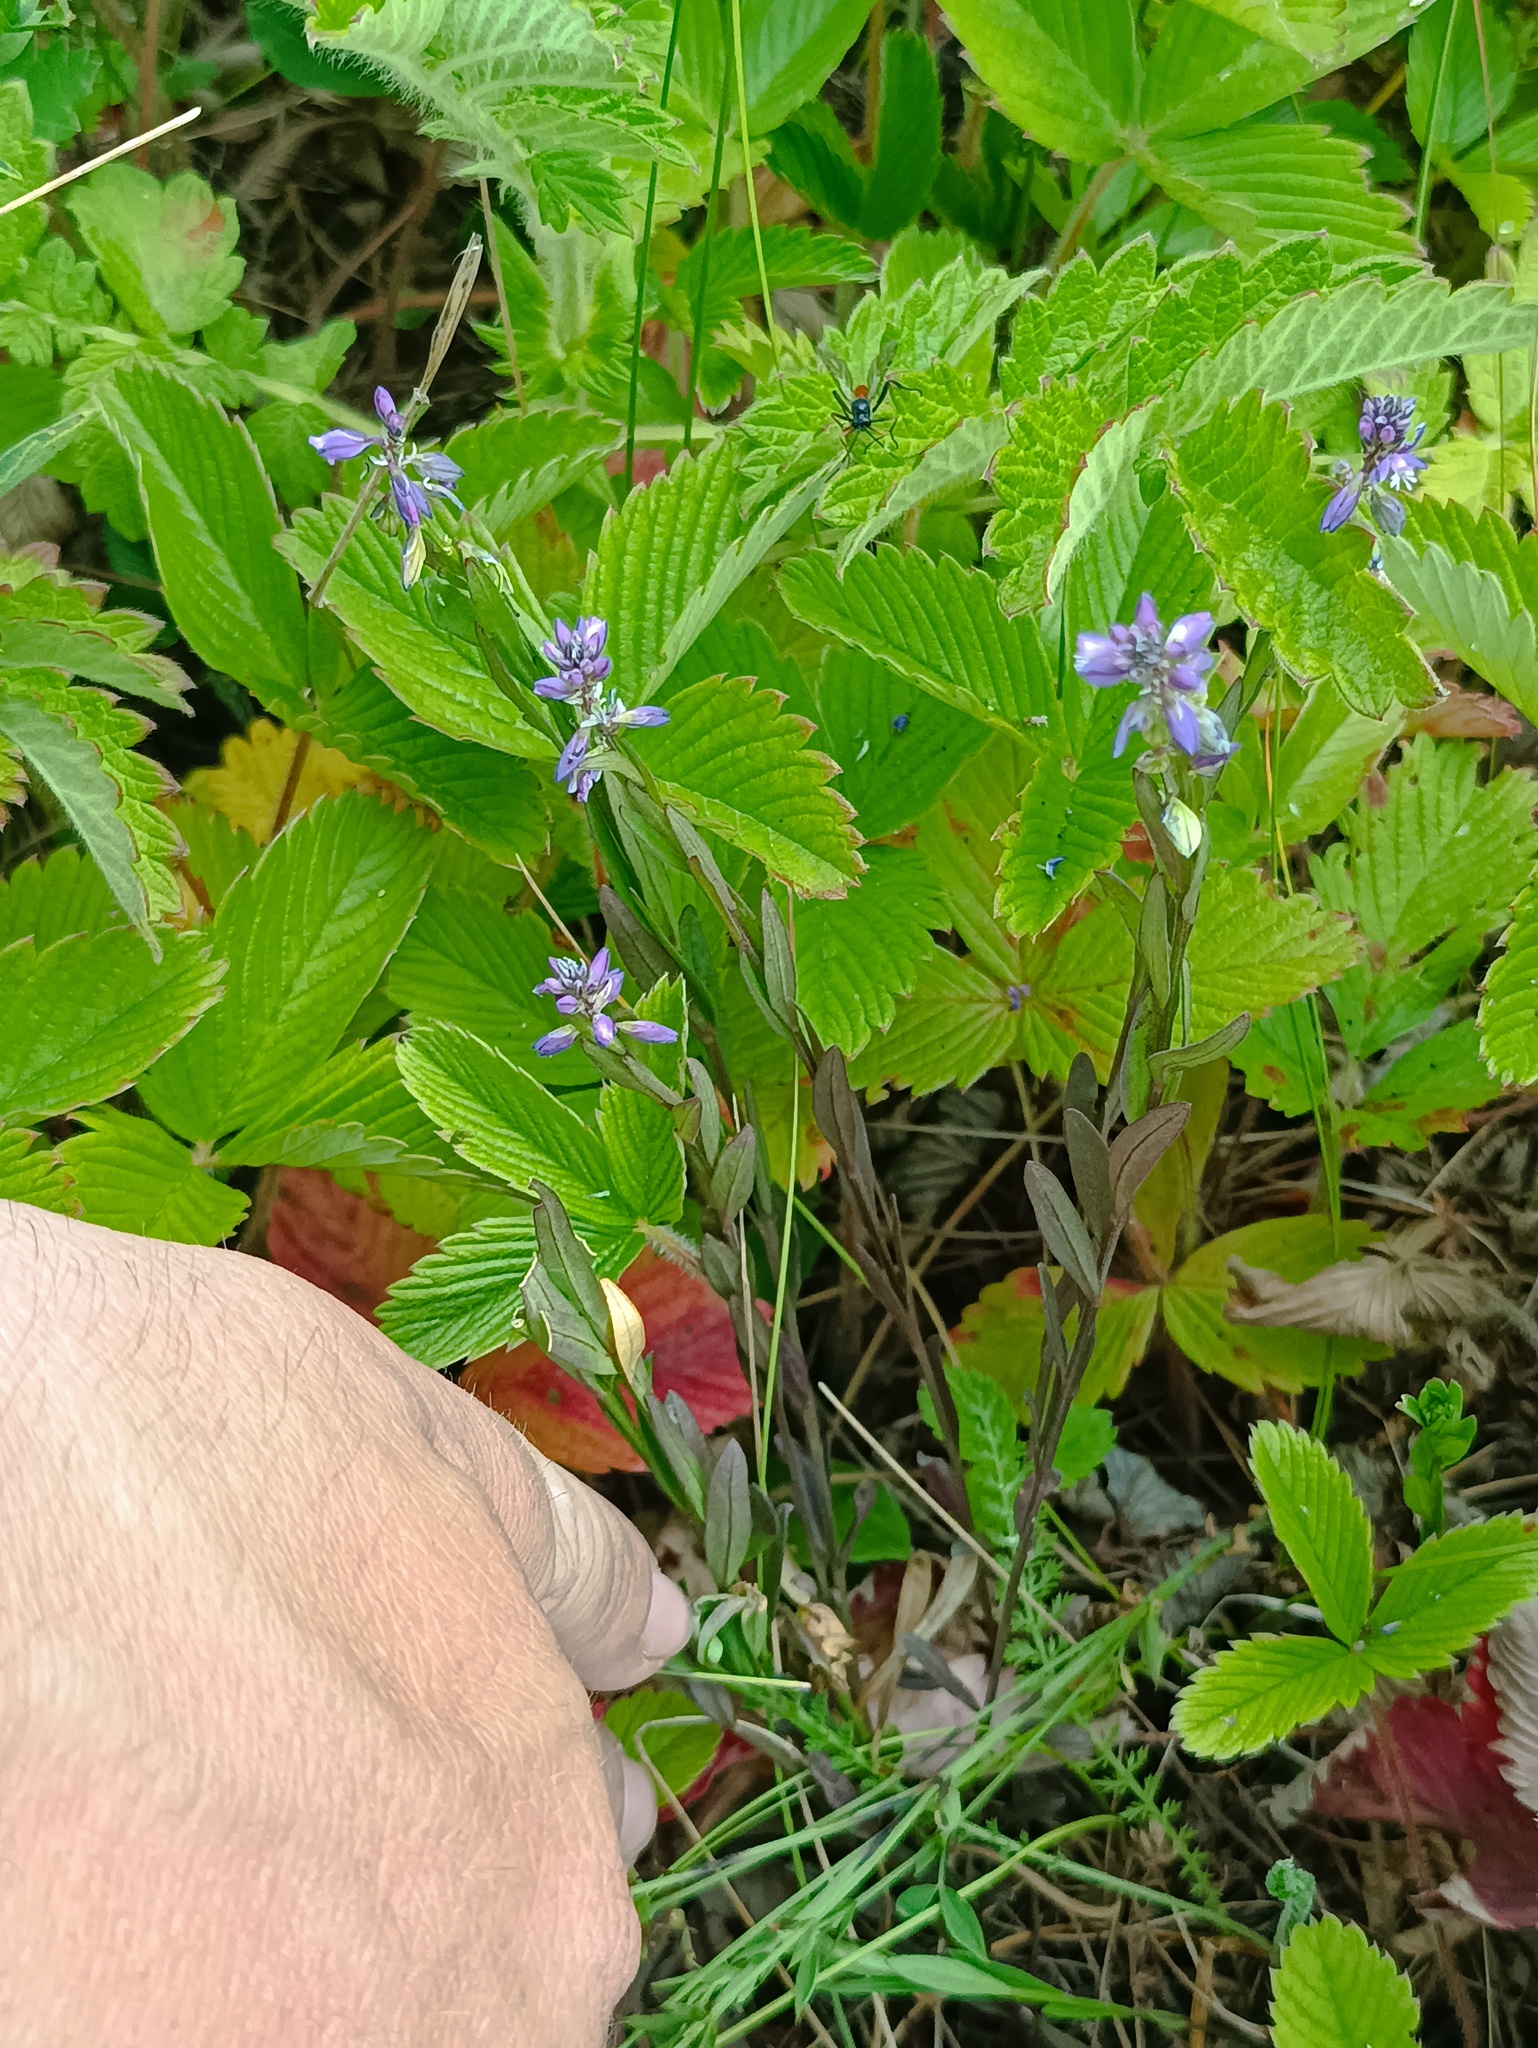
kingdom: Plantae
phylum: Tracheophyta
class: Magnoliopsida
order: Fabales
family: Polygalaceae
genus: Polygala
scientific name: Polygala comosa
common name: Tufted milkwort
